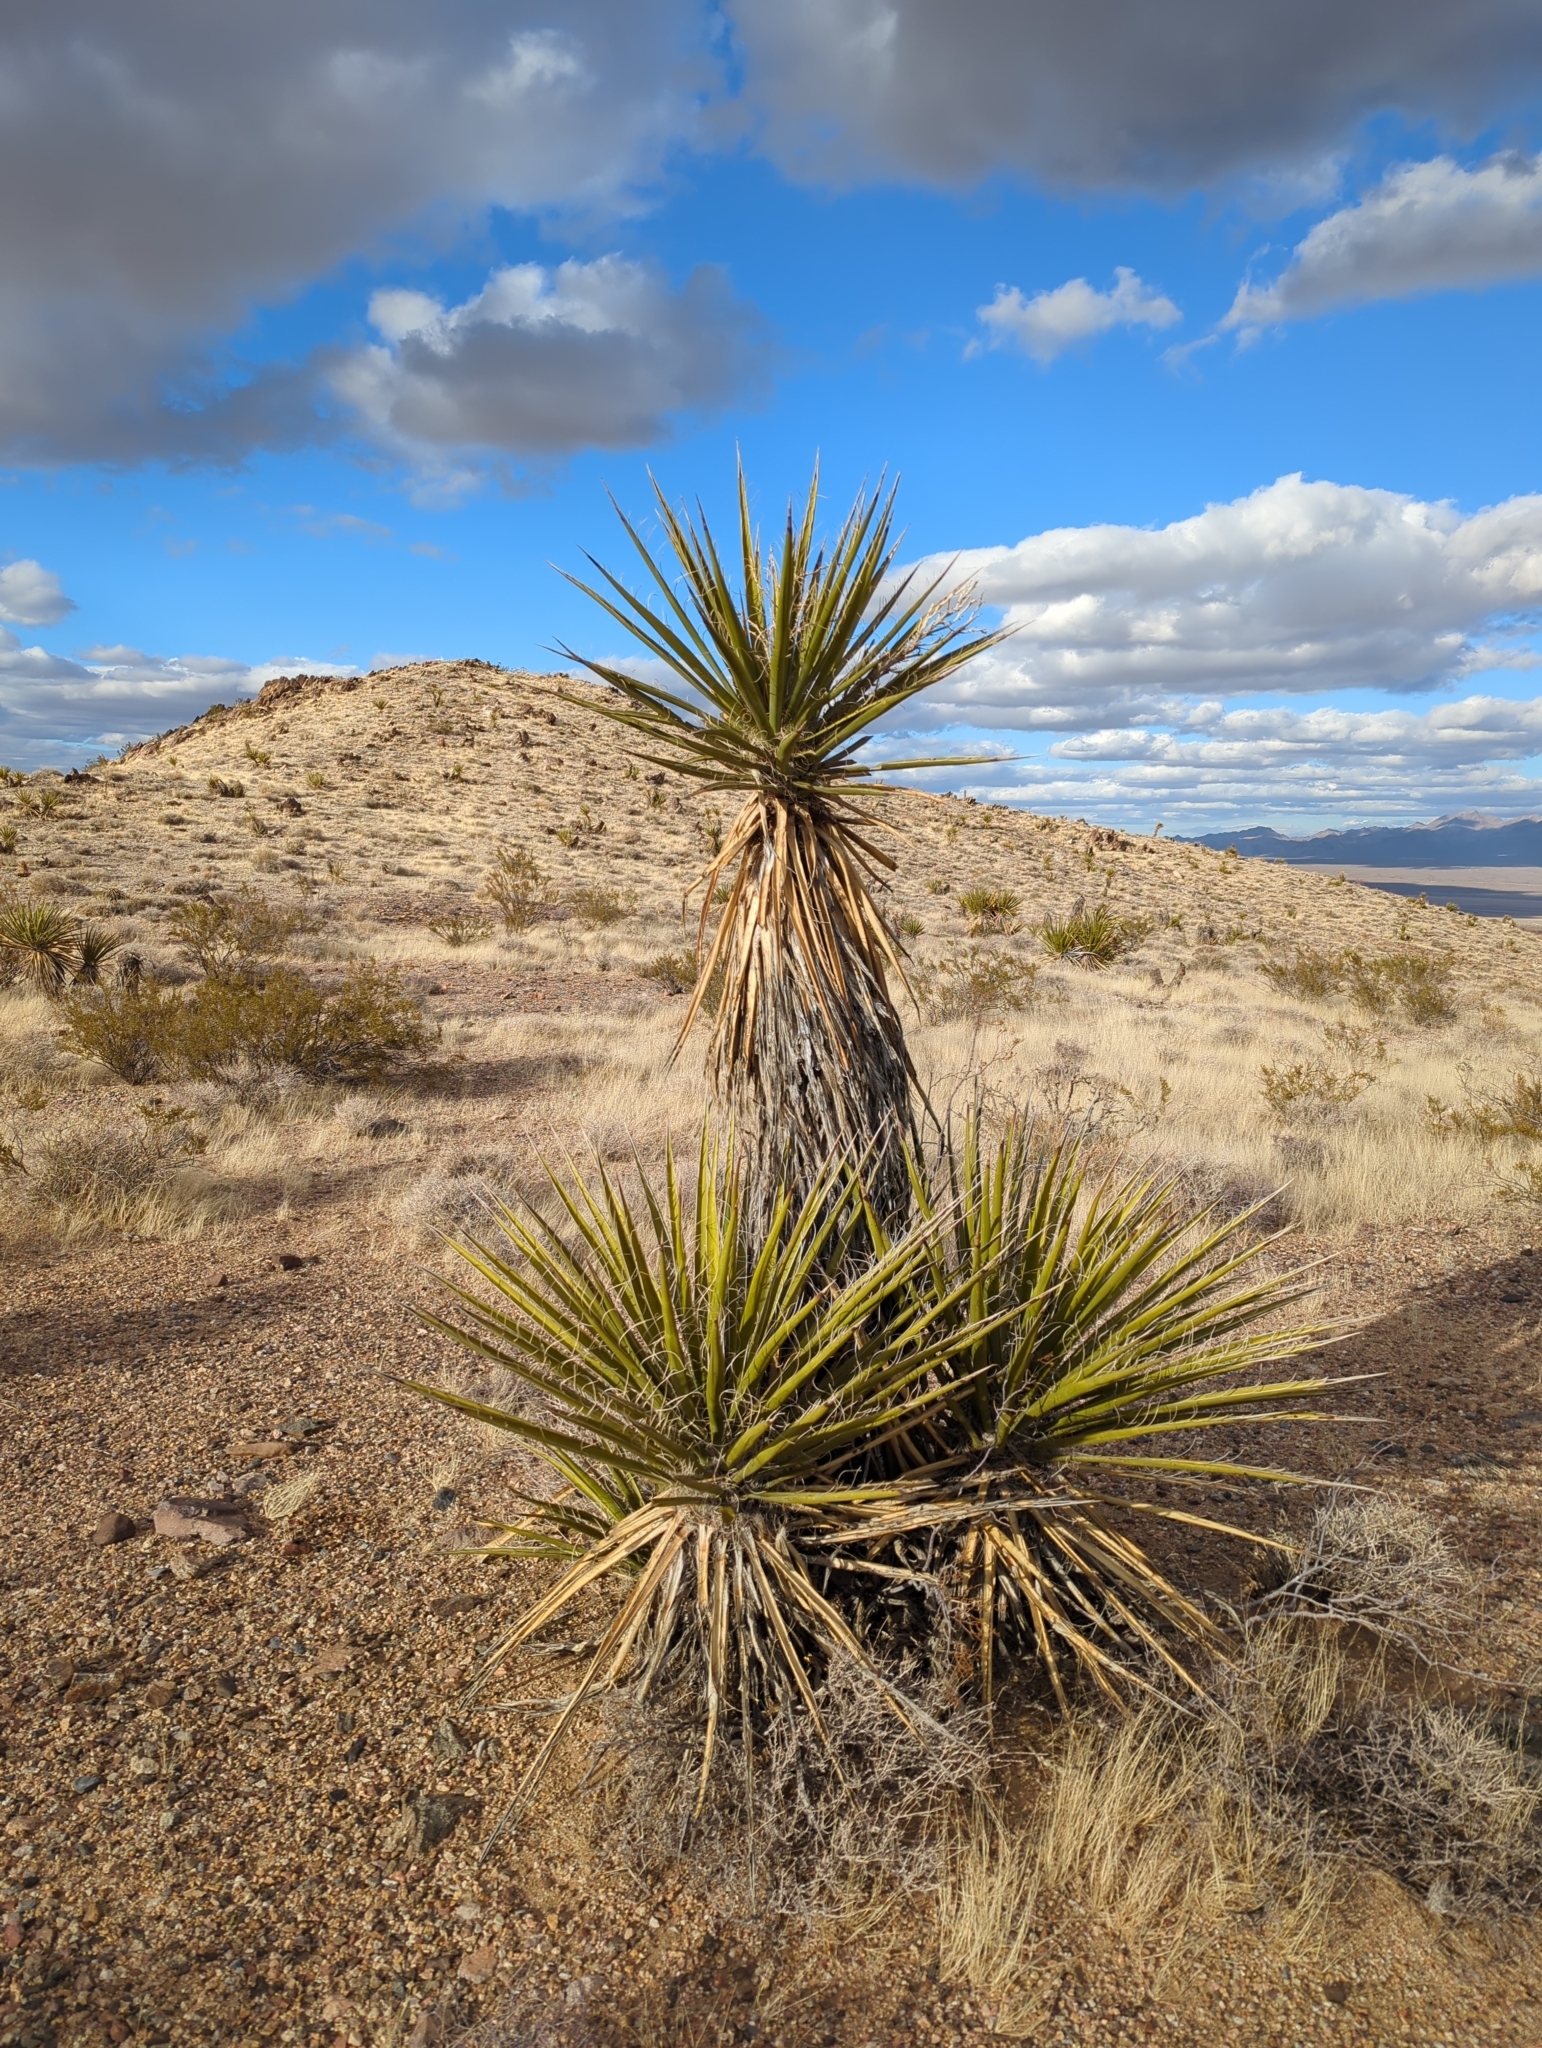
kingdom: Plantae
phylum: Tracheophyta
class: Liliopsida
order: Asparagales
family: Asparagaceae
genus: Yucca
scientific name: Yucca schidigera
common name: Mojave yucca
